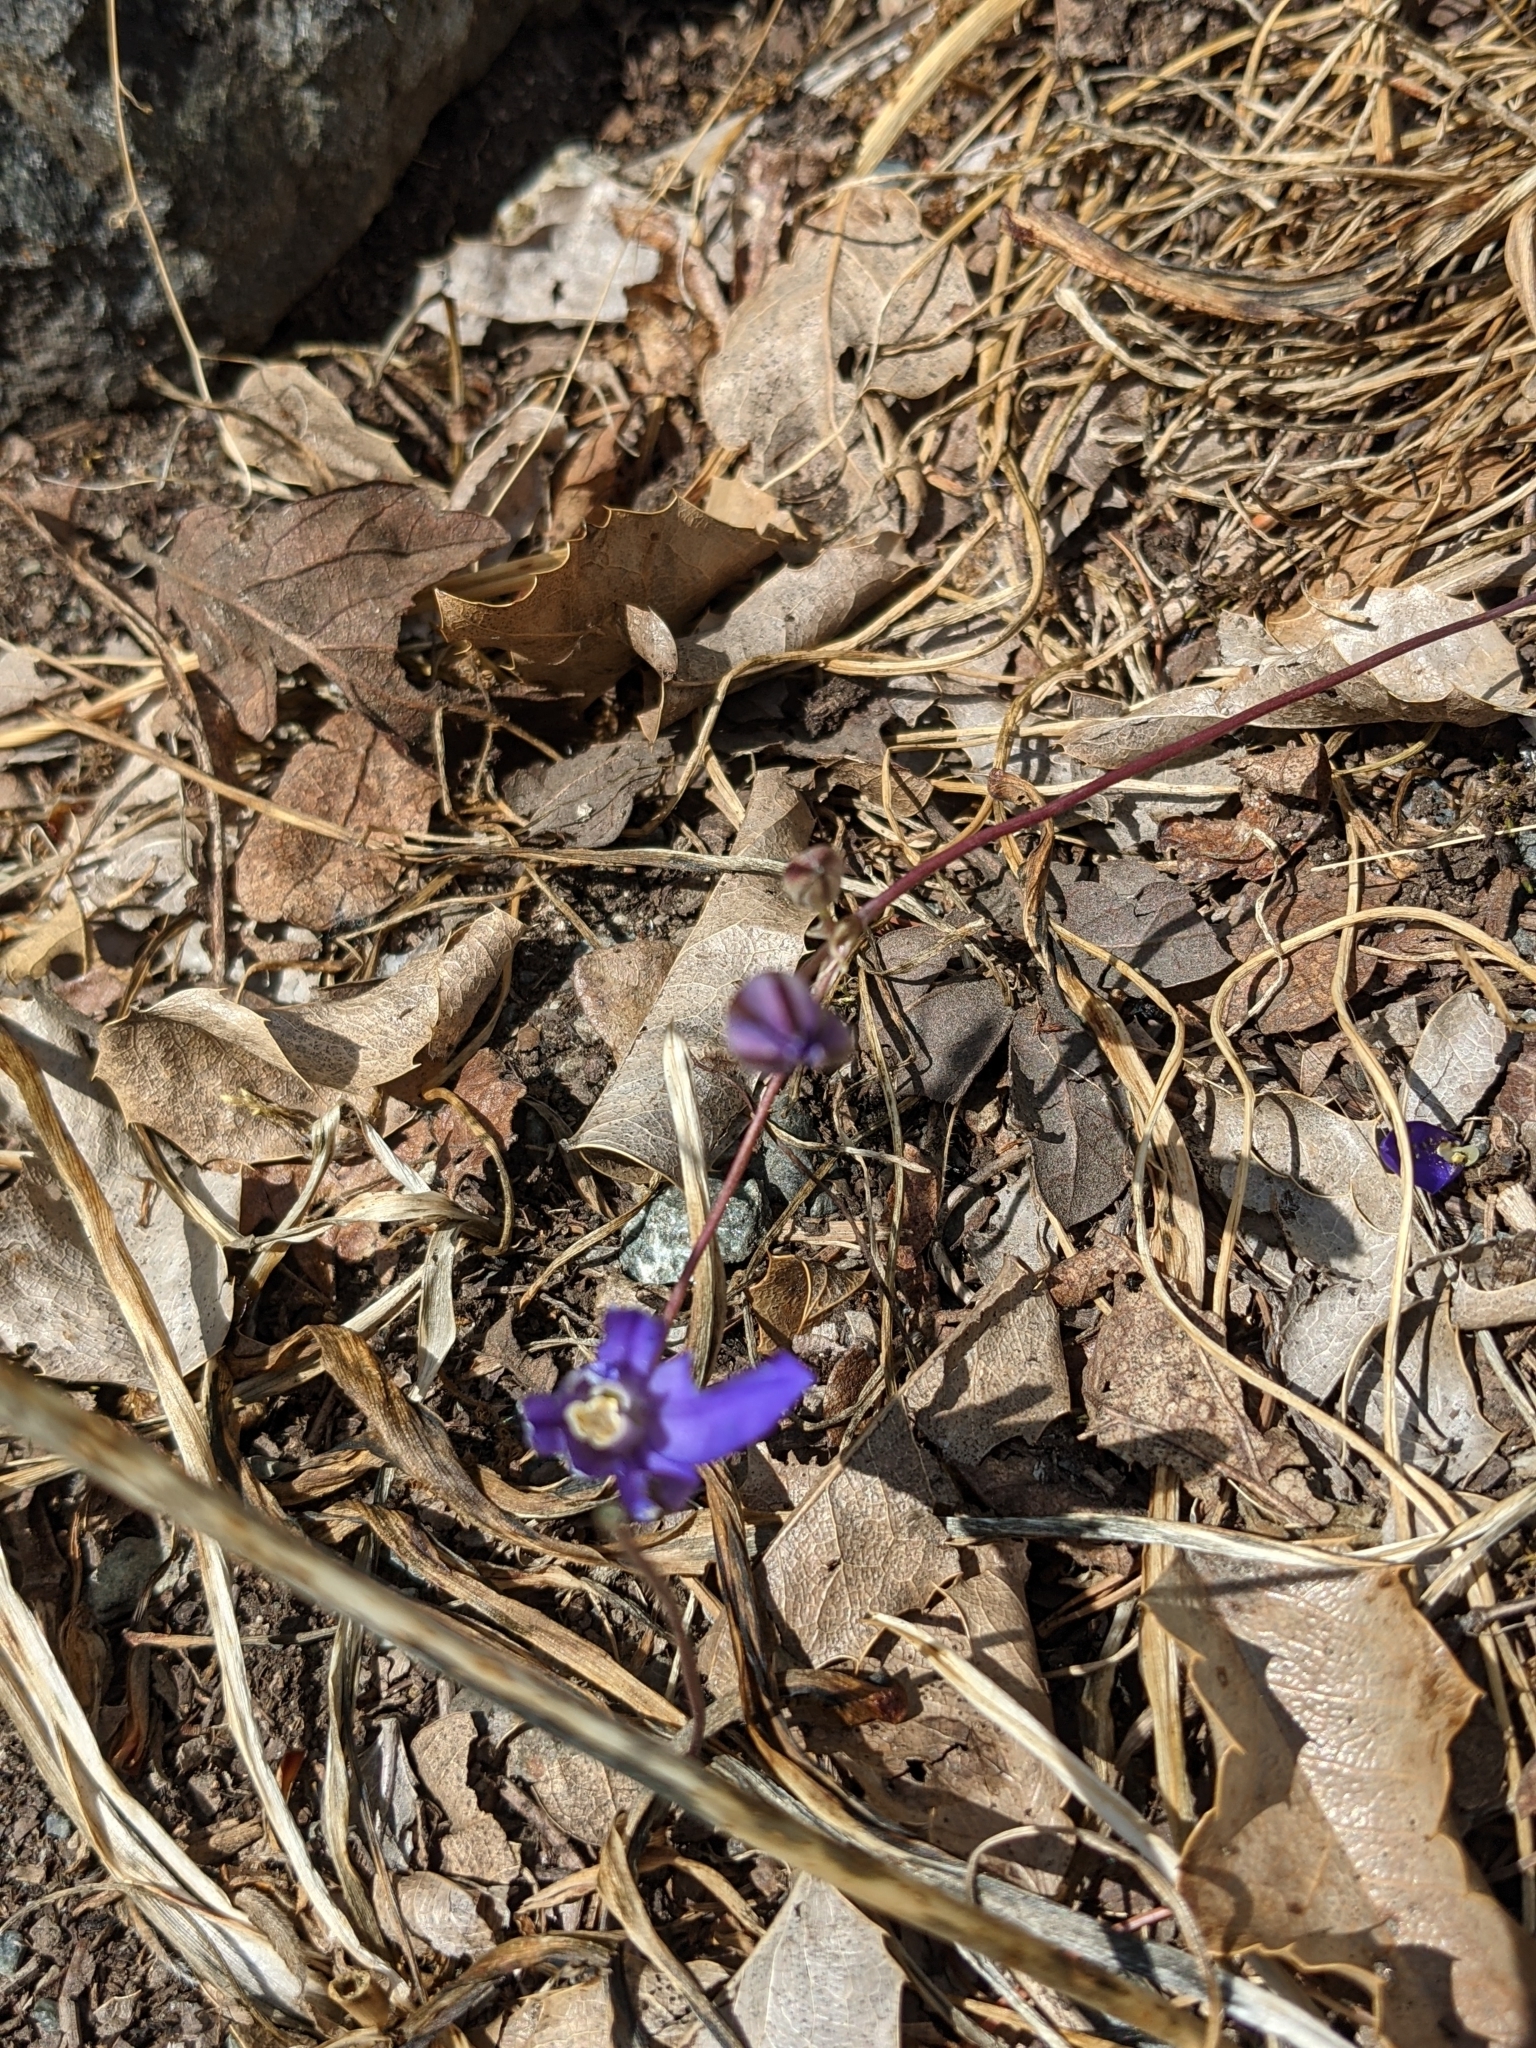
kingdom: Plantae
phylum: Tracheophyta
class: Liliopsida
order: Asparagales
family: Asparagaceae
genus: Brodiaea
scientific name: Brodiaea coronaria
